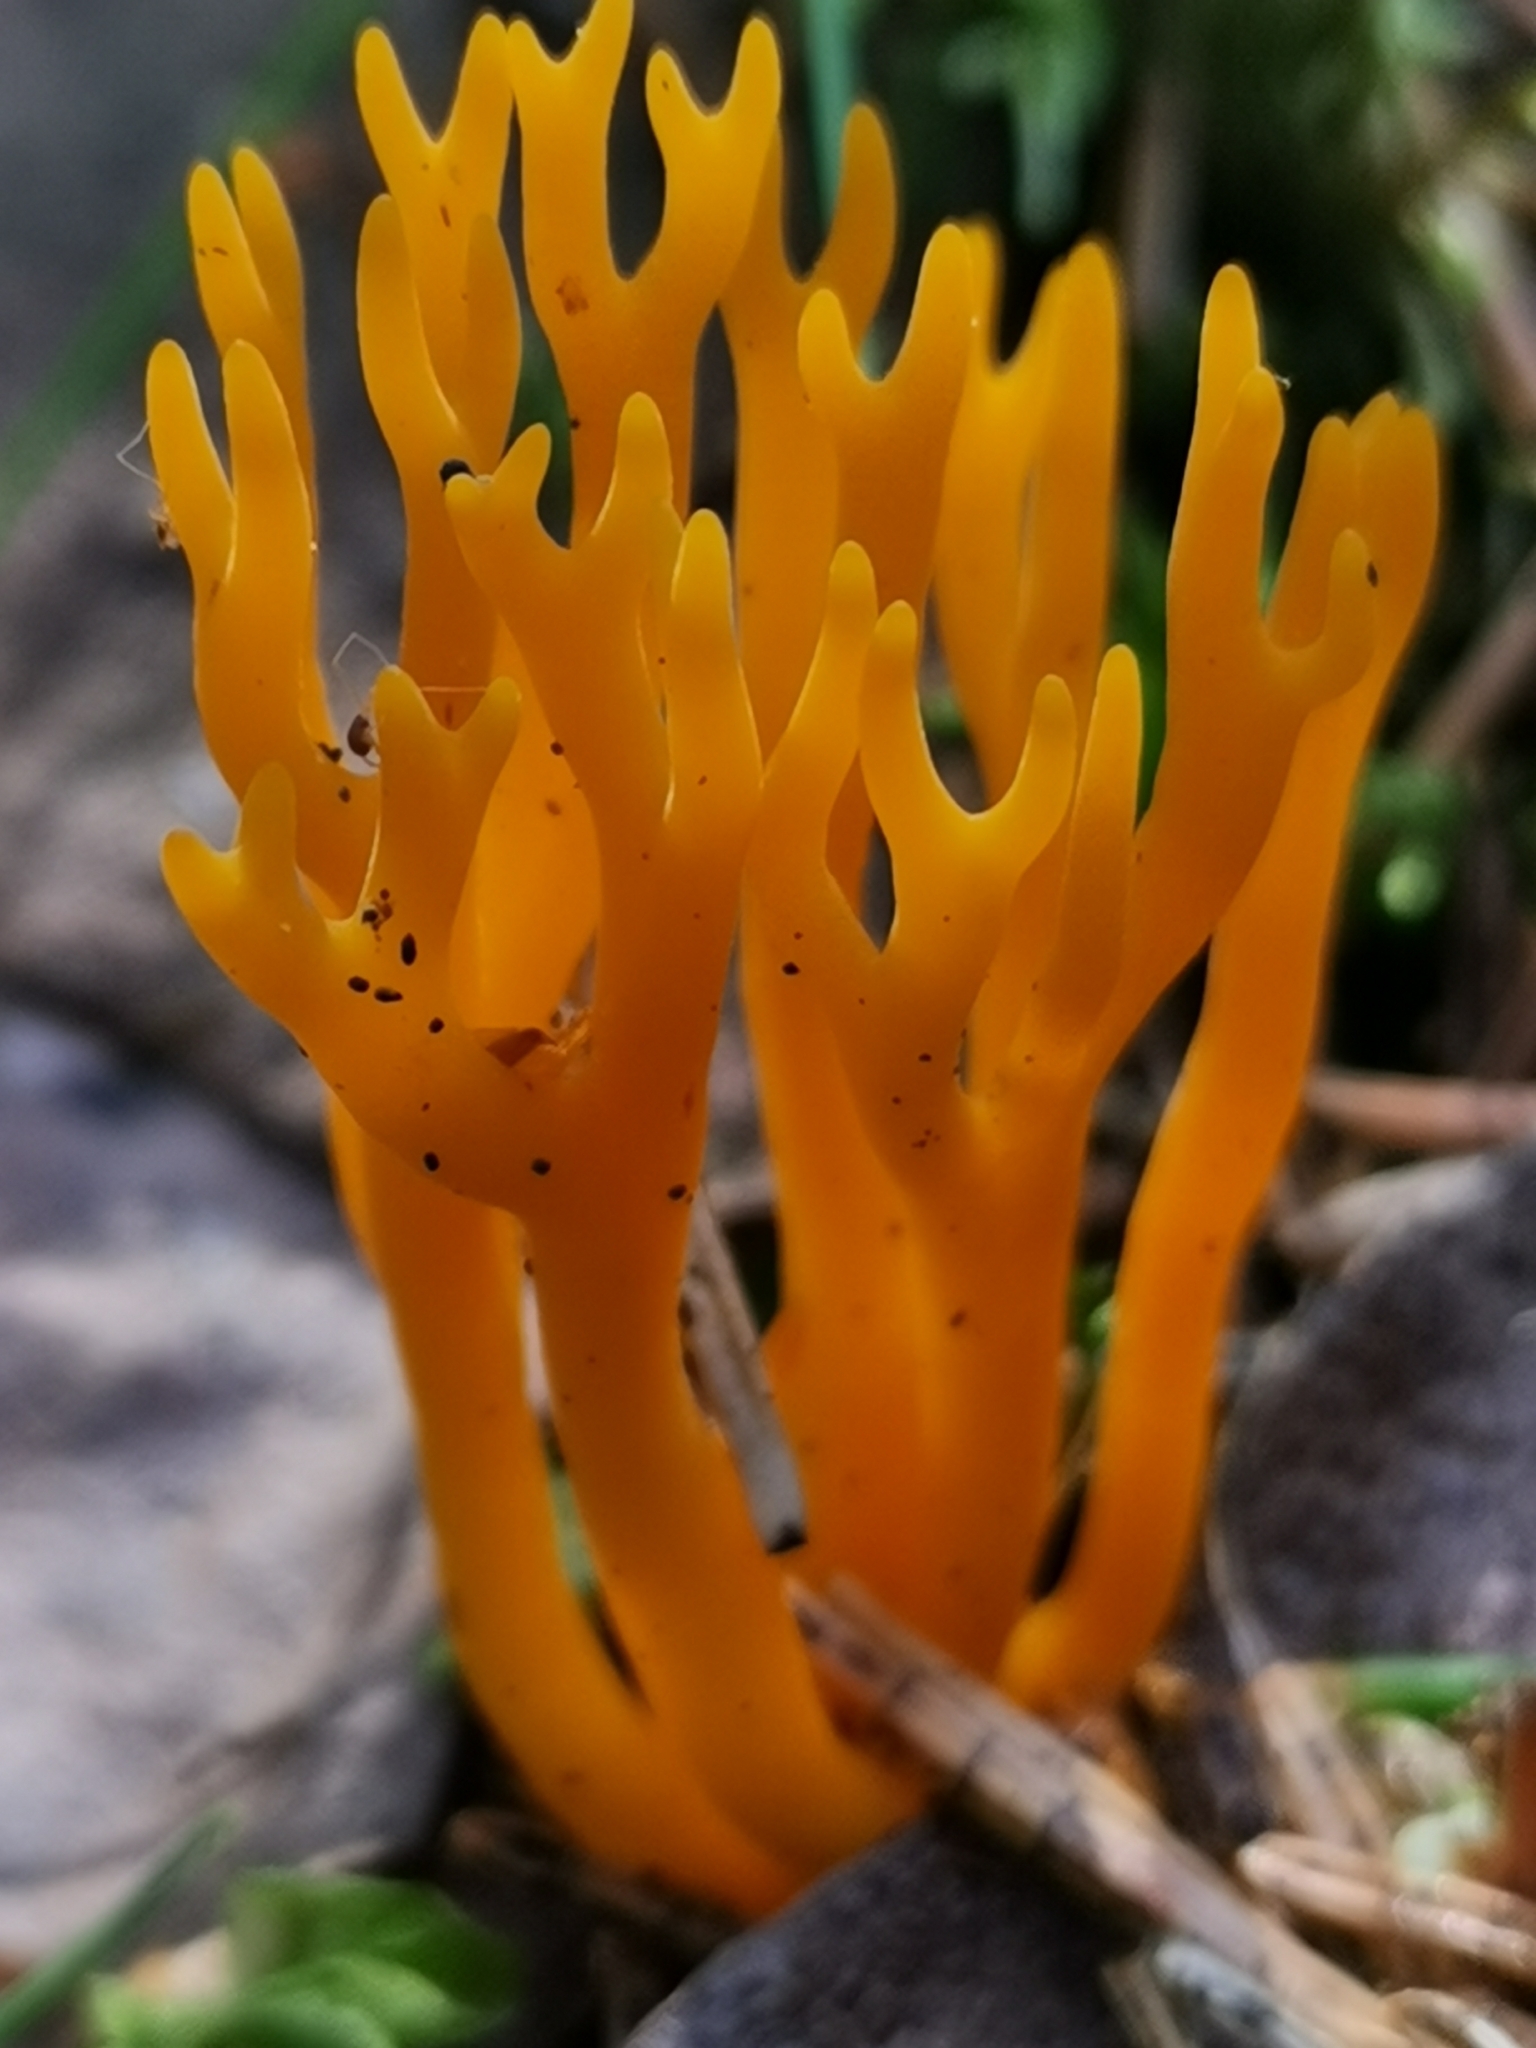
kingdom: Fungi
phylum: Basidiomycota
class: Dacrymycetes
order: Dacrymycetales
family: Dacrymycetaceae
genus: Calocera
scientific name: Calocera viscosa
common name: Yellow stagshorn
